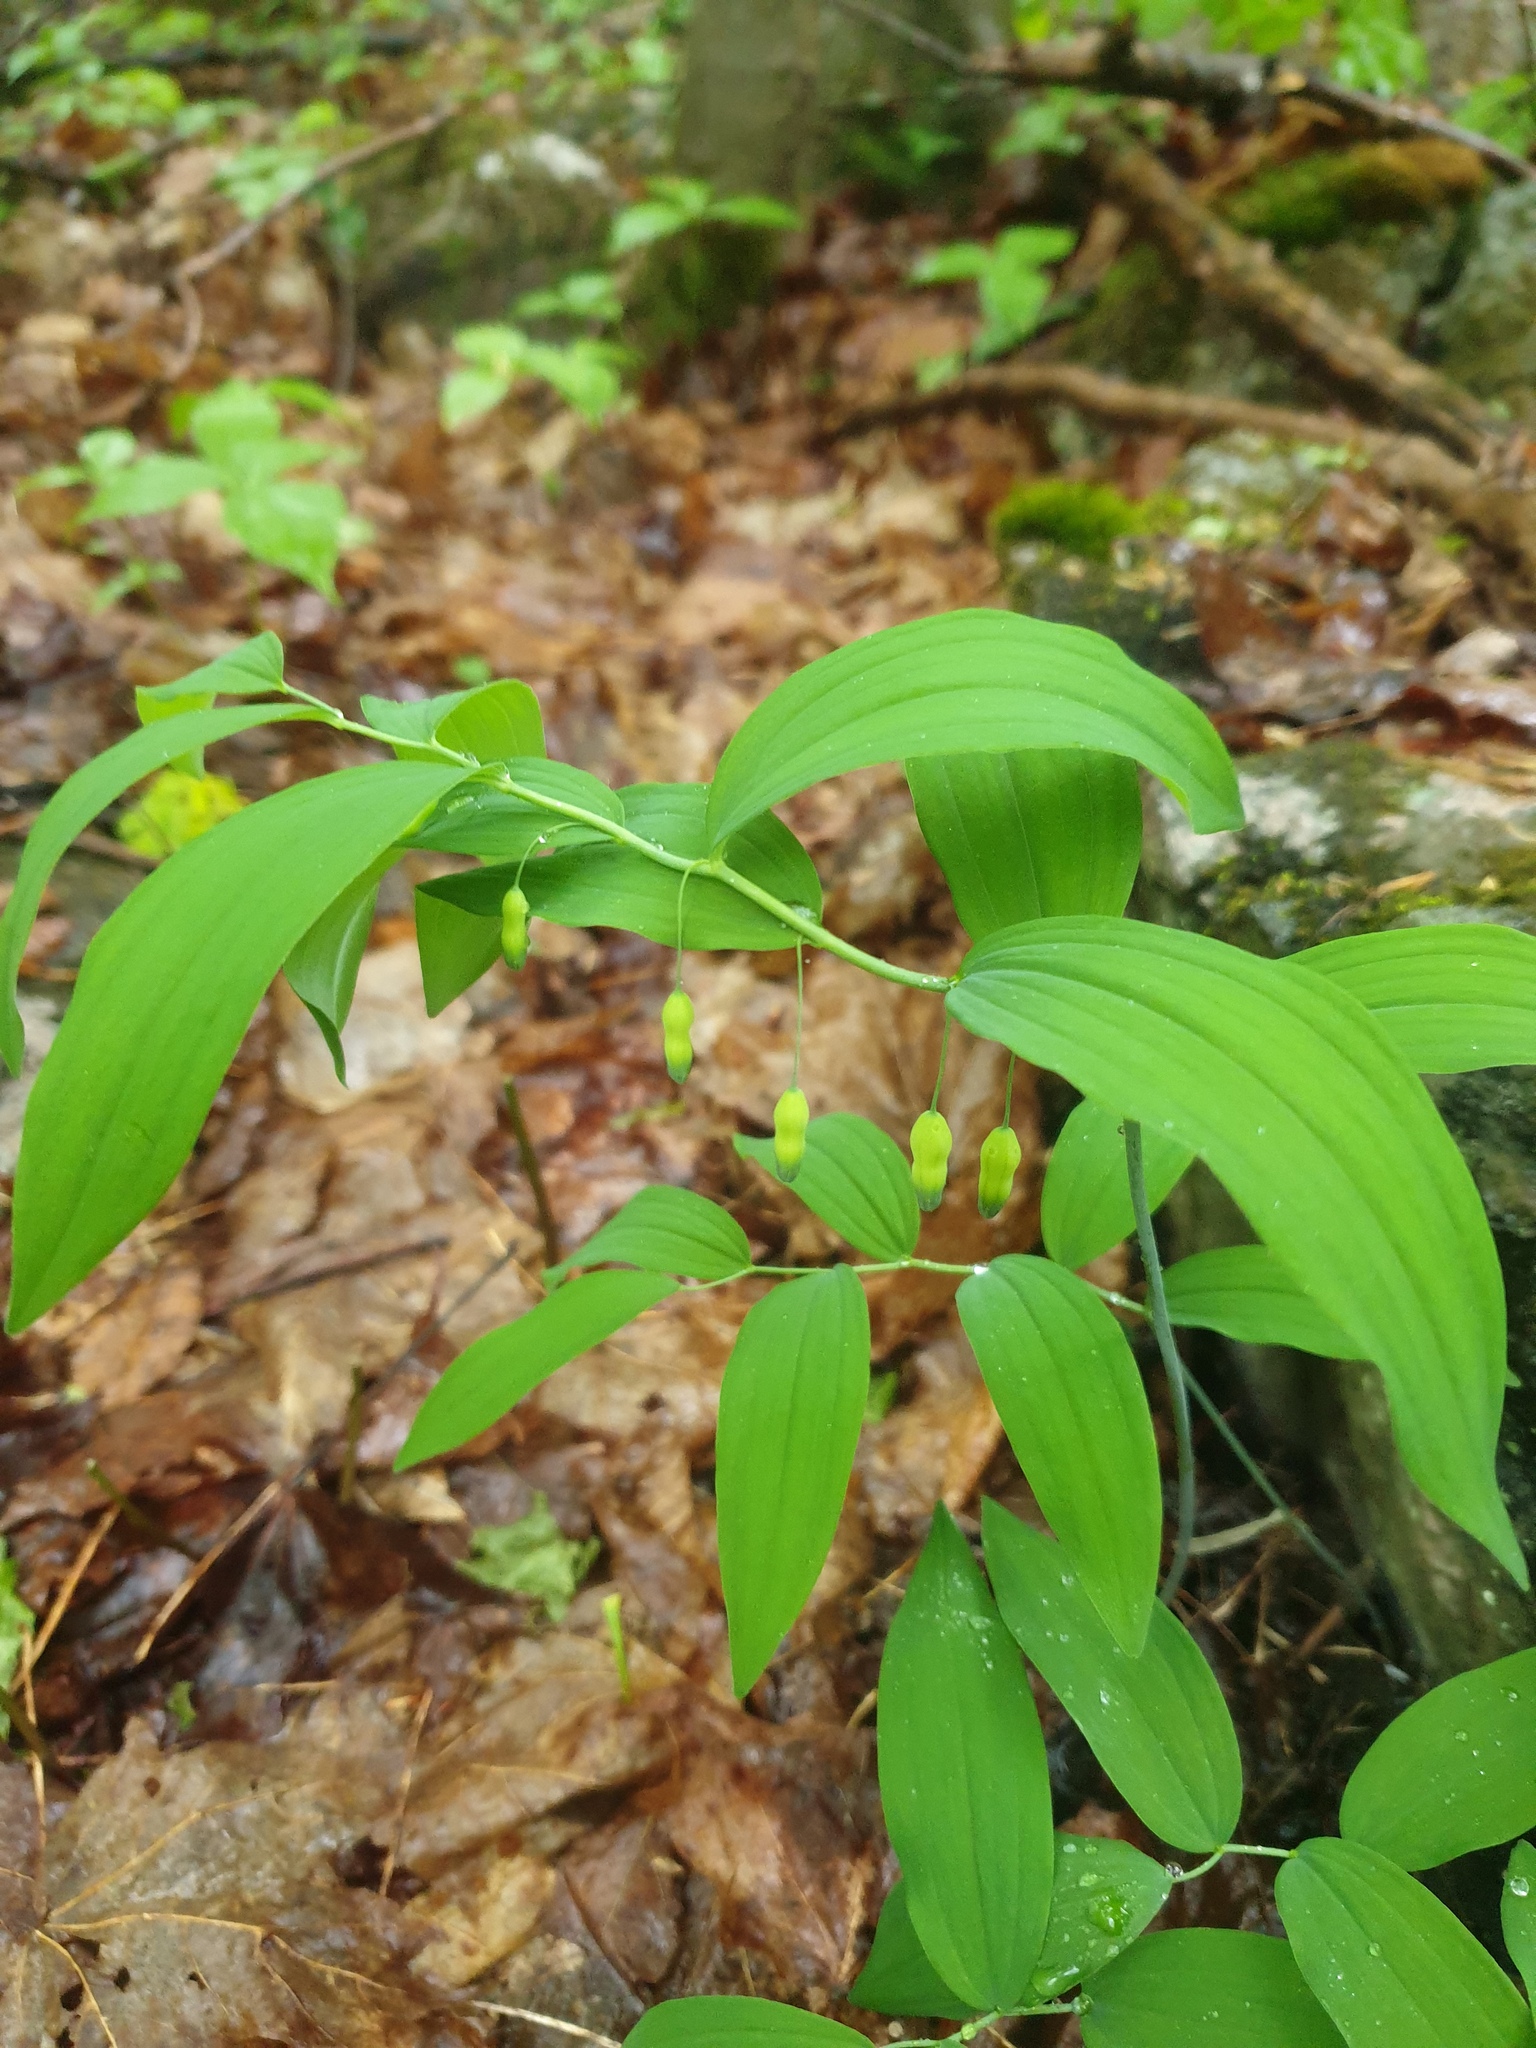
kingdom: Plantae
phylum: Tracheophyta
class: Liliopsida
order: Asparagales
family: Asparagaceae
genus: Polygonatum
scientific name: Polygonatum pubescens
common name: Downy solomon's seal
